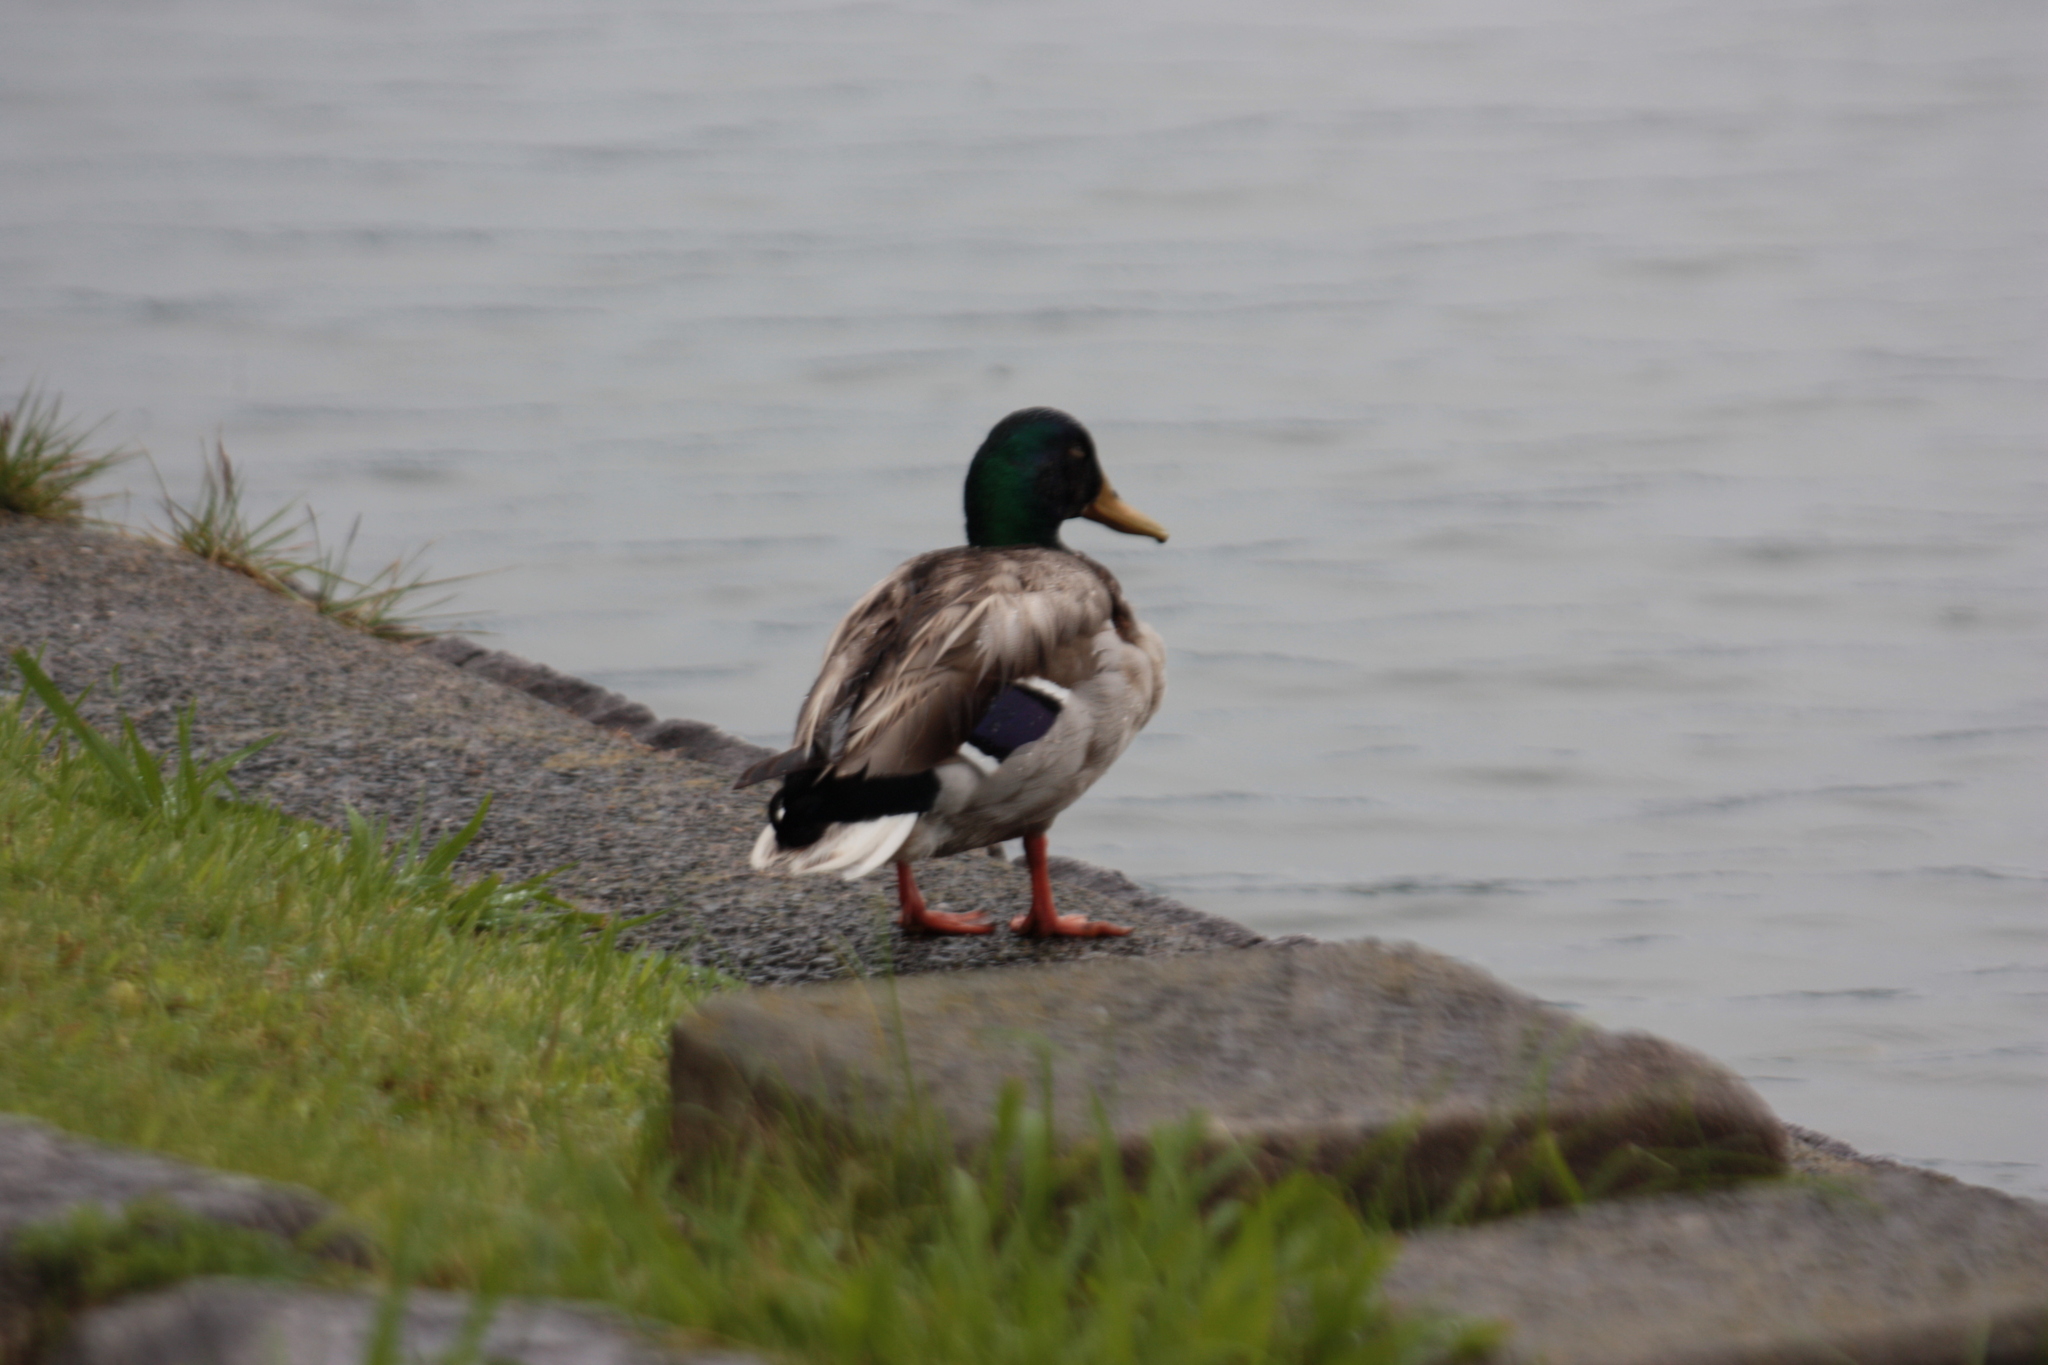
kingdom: Animalia
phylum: Chordata
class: Aves
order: Anseriformes
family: Anatidae
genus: Anas
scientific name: Anas platyrhynchos
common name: Mallard
